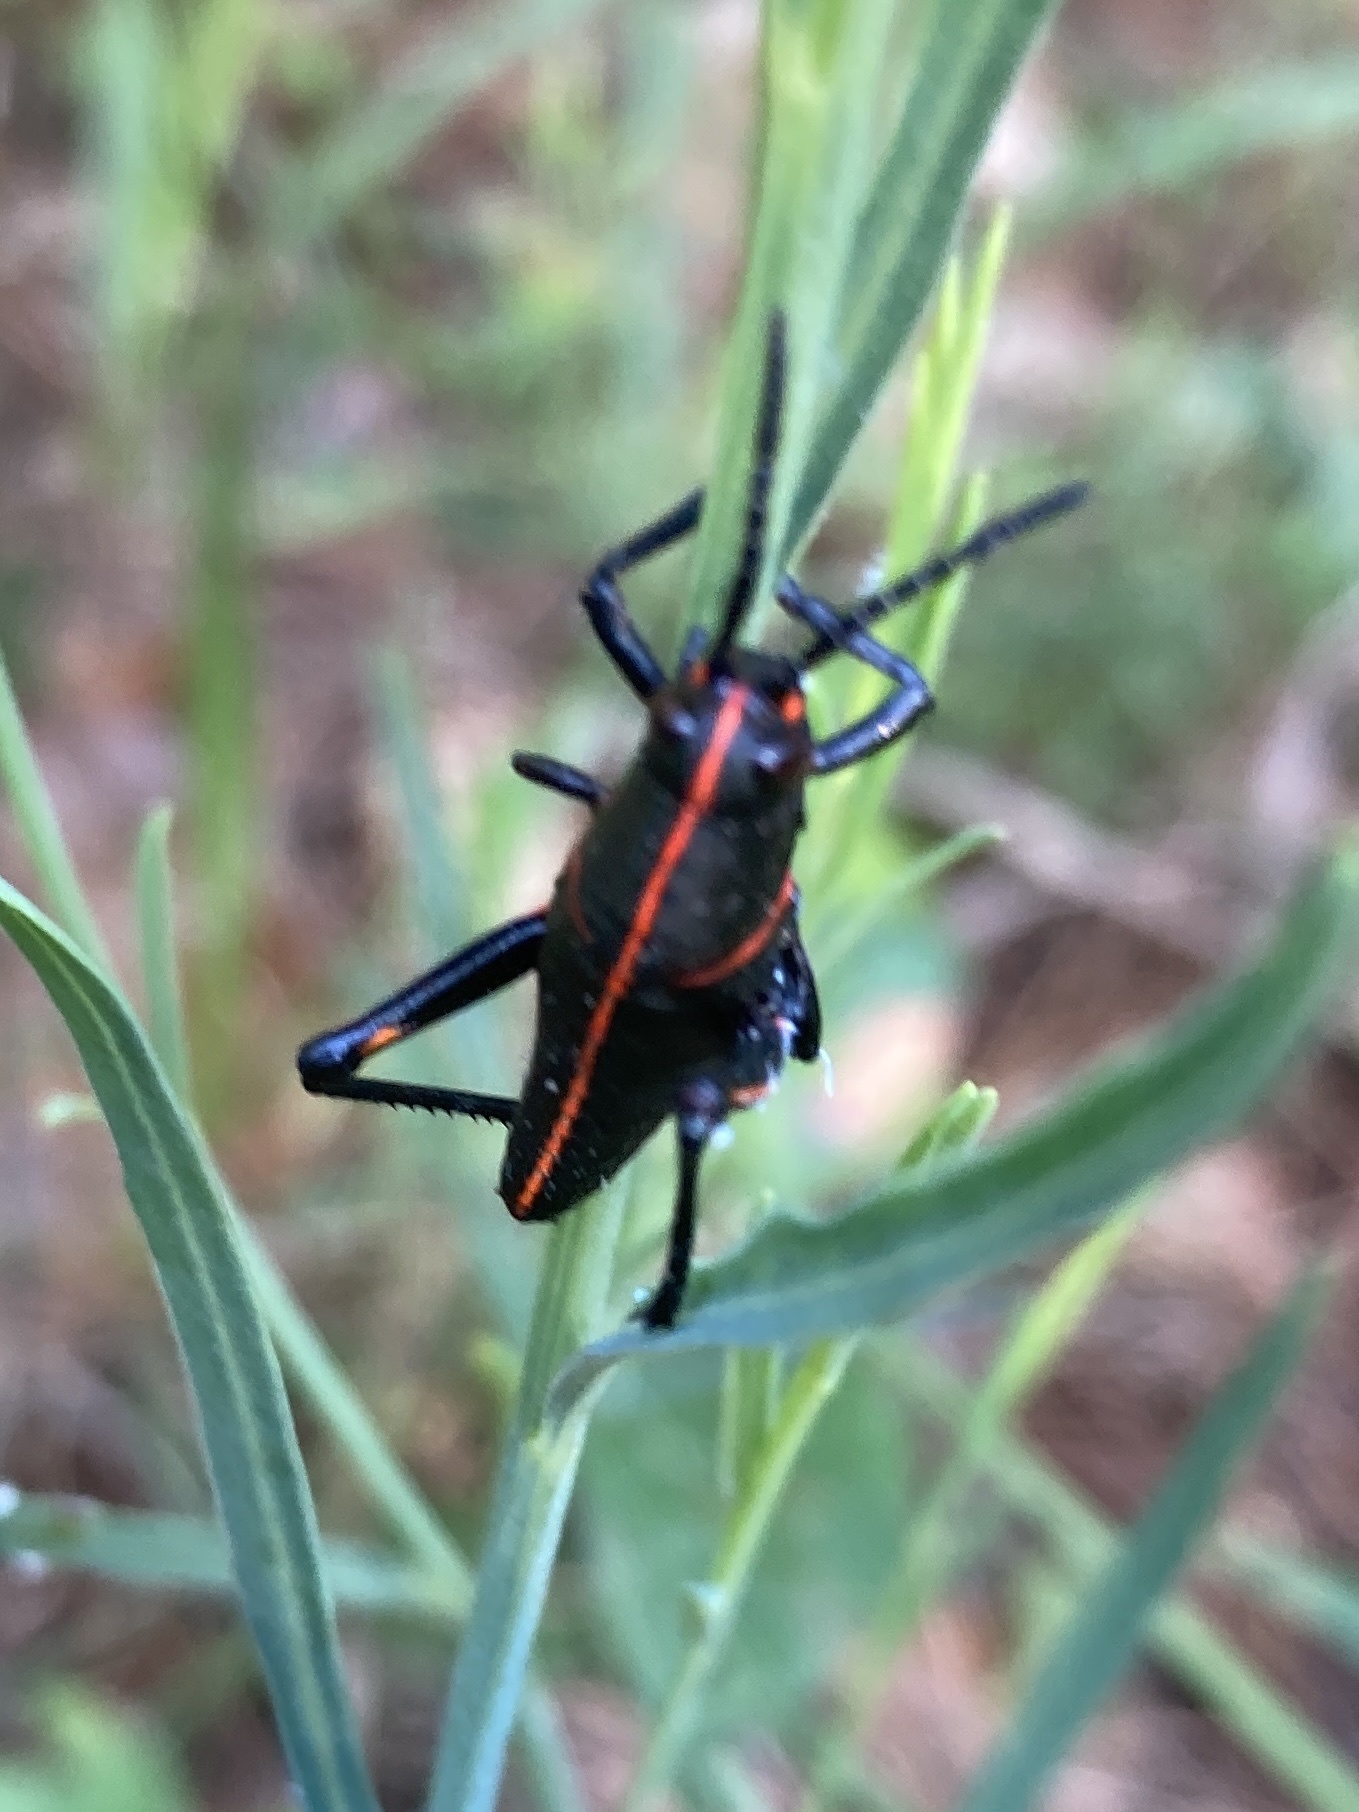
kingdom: Animalia
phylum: Arthropoda
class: Insecta
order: Orthoptera
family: Romaleidae
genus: Romalea
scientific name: Romalea microptera
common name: Eastern lubber grasshopper
